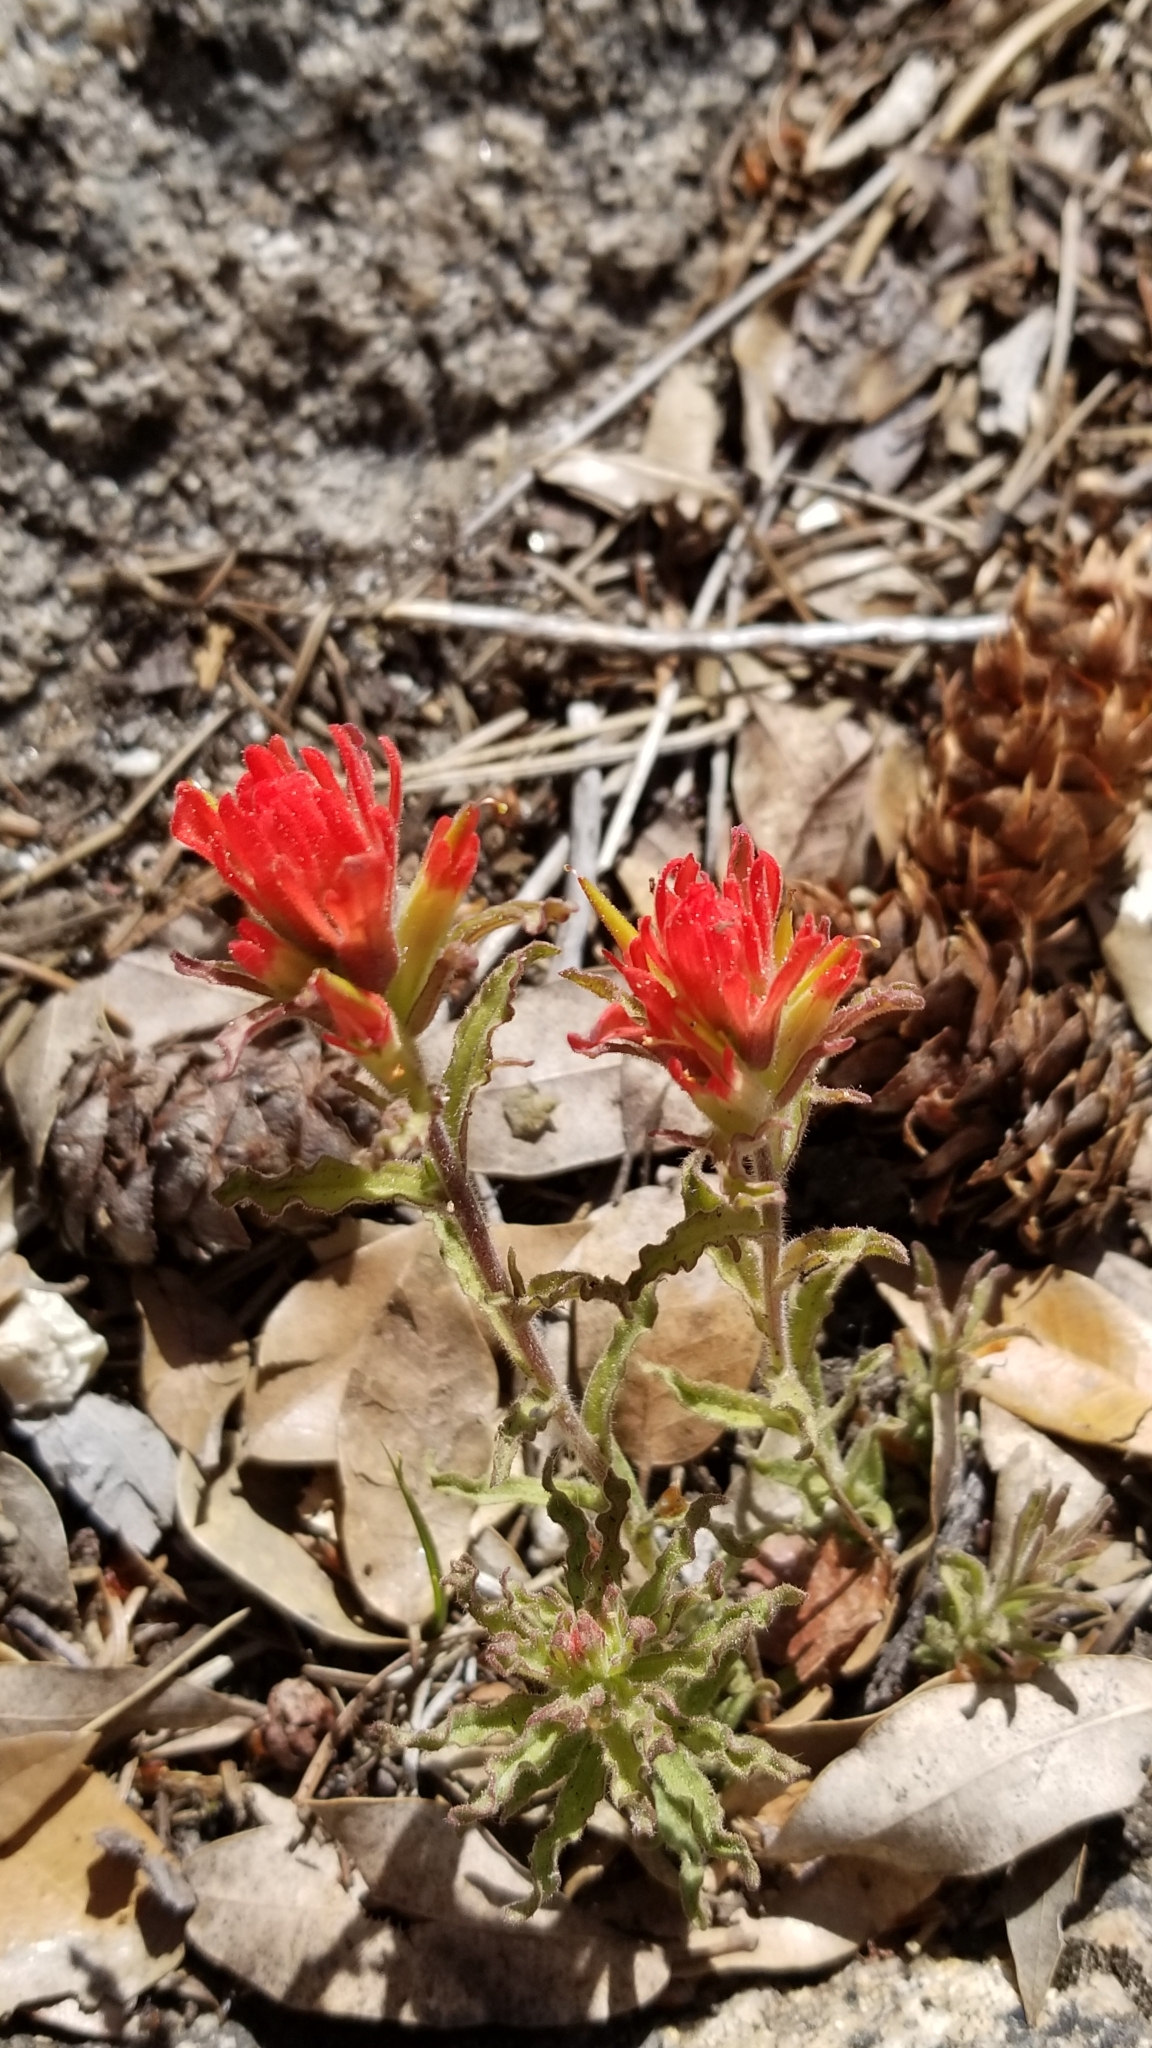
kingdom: Plantae
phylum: Tracheophyta
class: Magnoliopsida
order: Lamiales
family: Orobanchaceae
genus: Castilleja
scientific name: Castilleja applegatei
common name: Wavy-leaf paintbrush
